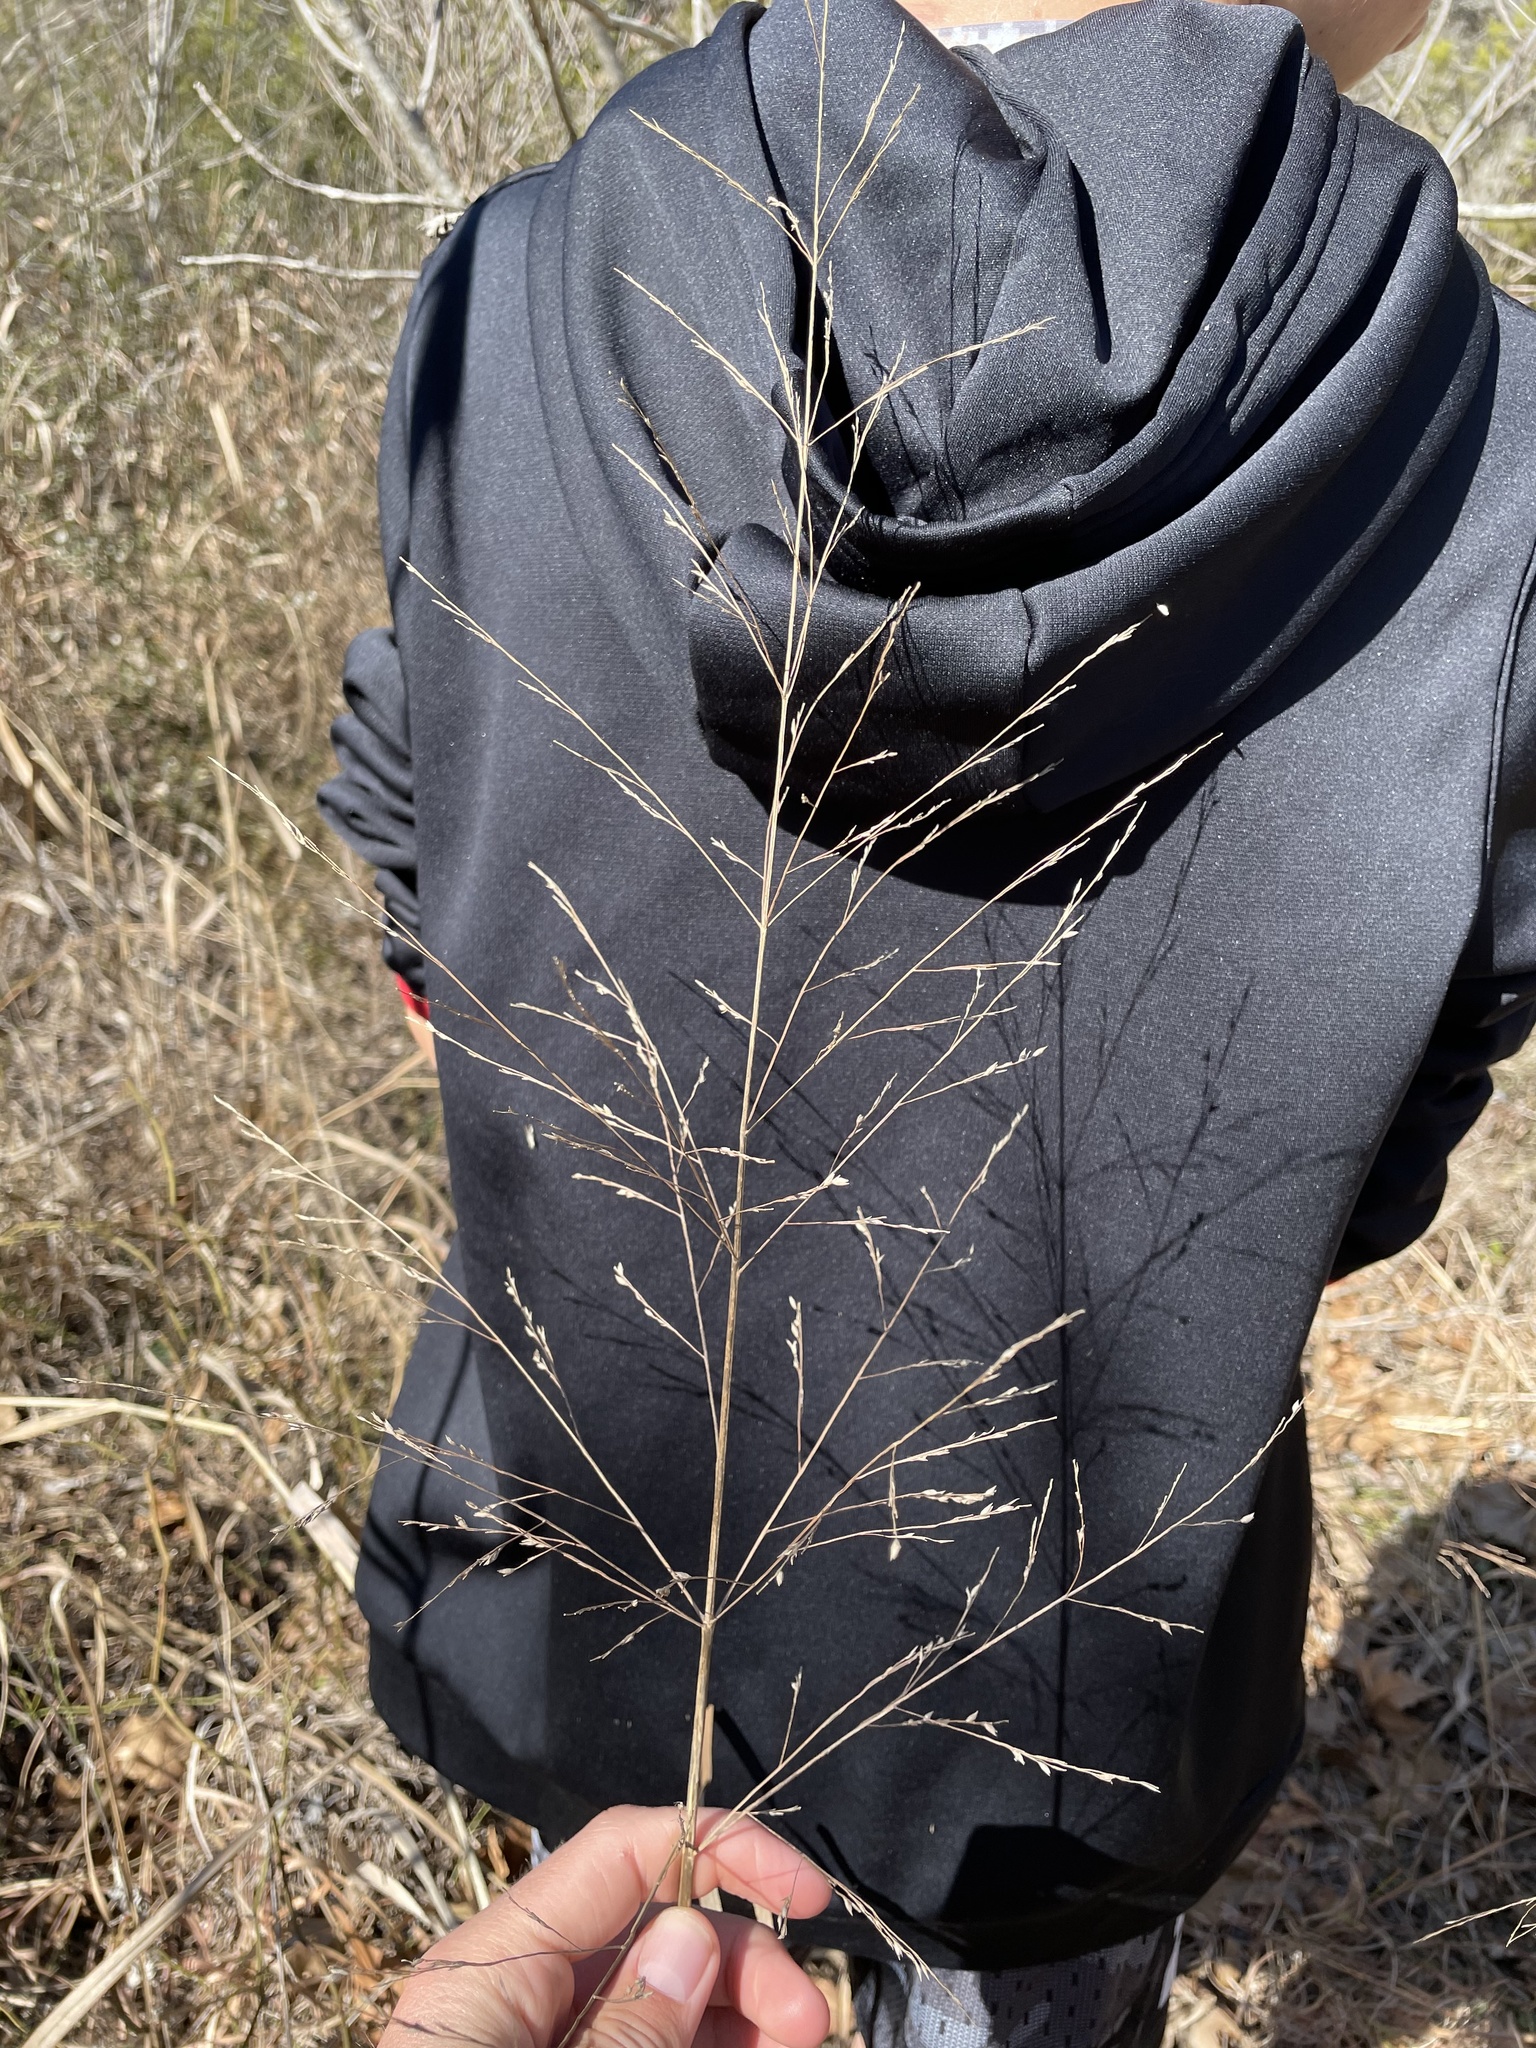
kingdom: Plantae
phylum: Tracheophyta
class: Liliopsida
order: Poales
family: Poaceae
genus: Panicum
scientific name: Panicum virgatum
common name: Switchgrass
